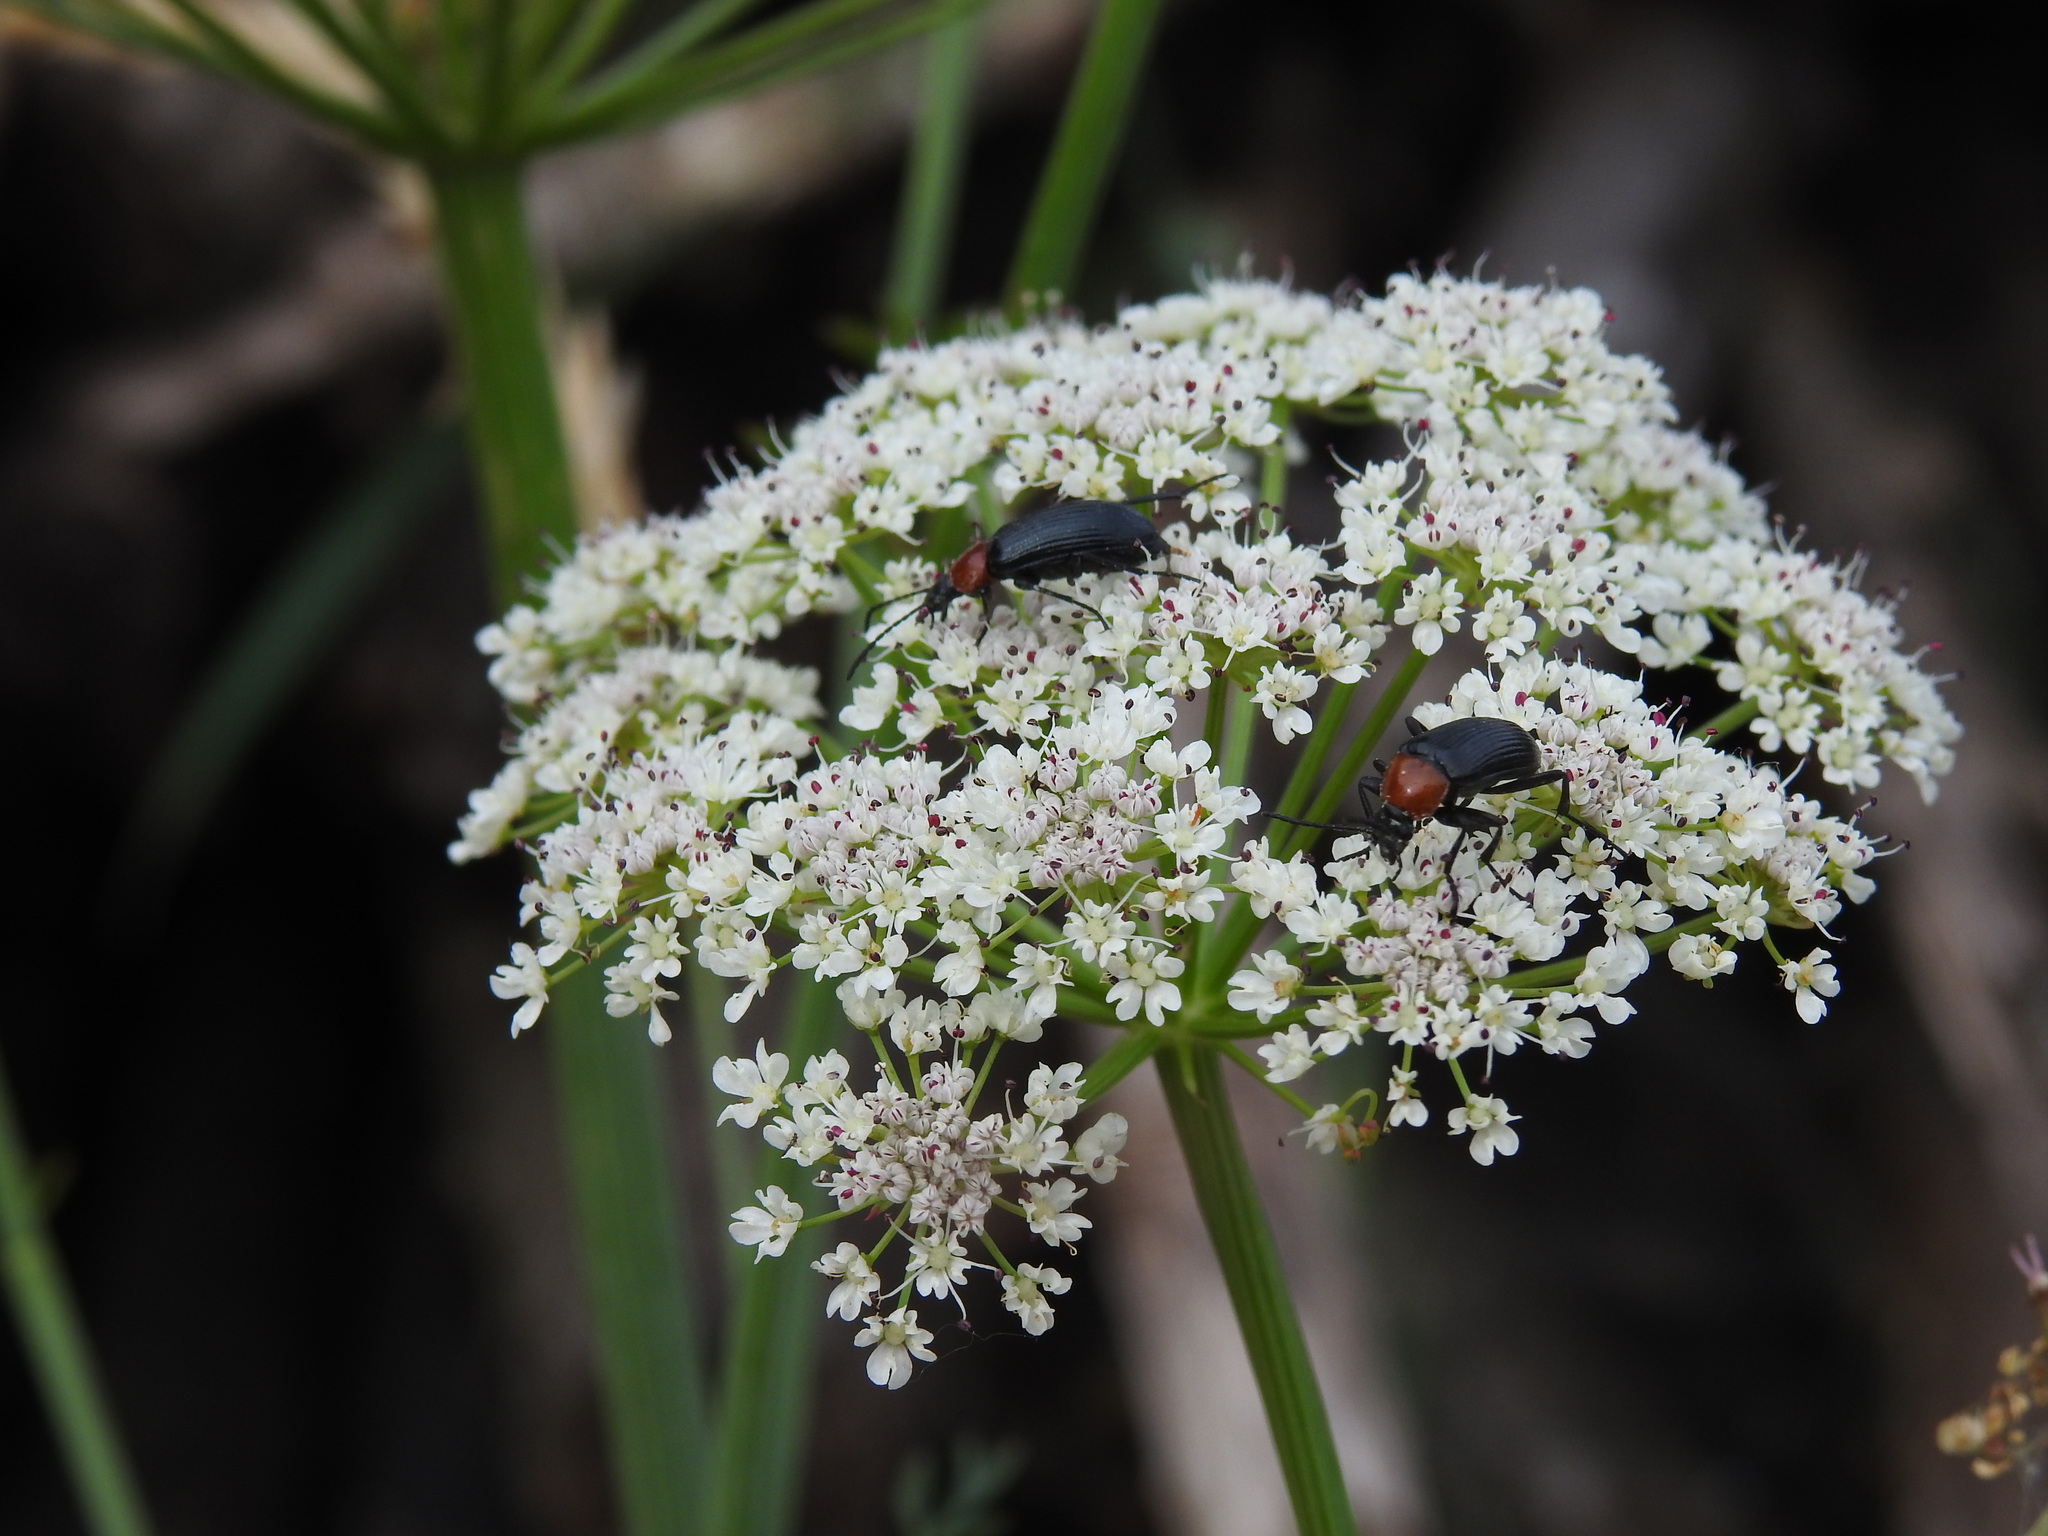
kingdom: Animalia
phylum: Arthropoda
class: Insecta
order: Coleoptera
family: Tenebrionidae
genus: Heliotaurus
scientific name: Heliotaurus ruficollis
